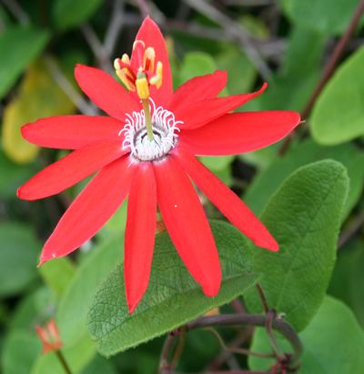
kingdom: Plantae
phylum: Tracheophyta
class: Magnoliopsida
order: Malpighiales
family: Passifloraceae
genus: Passiflora
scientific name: Passiflora luetzelburgii
